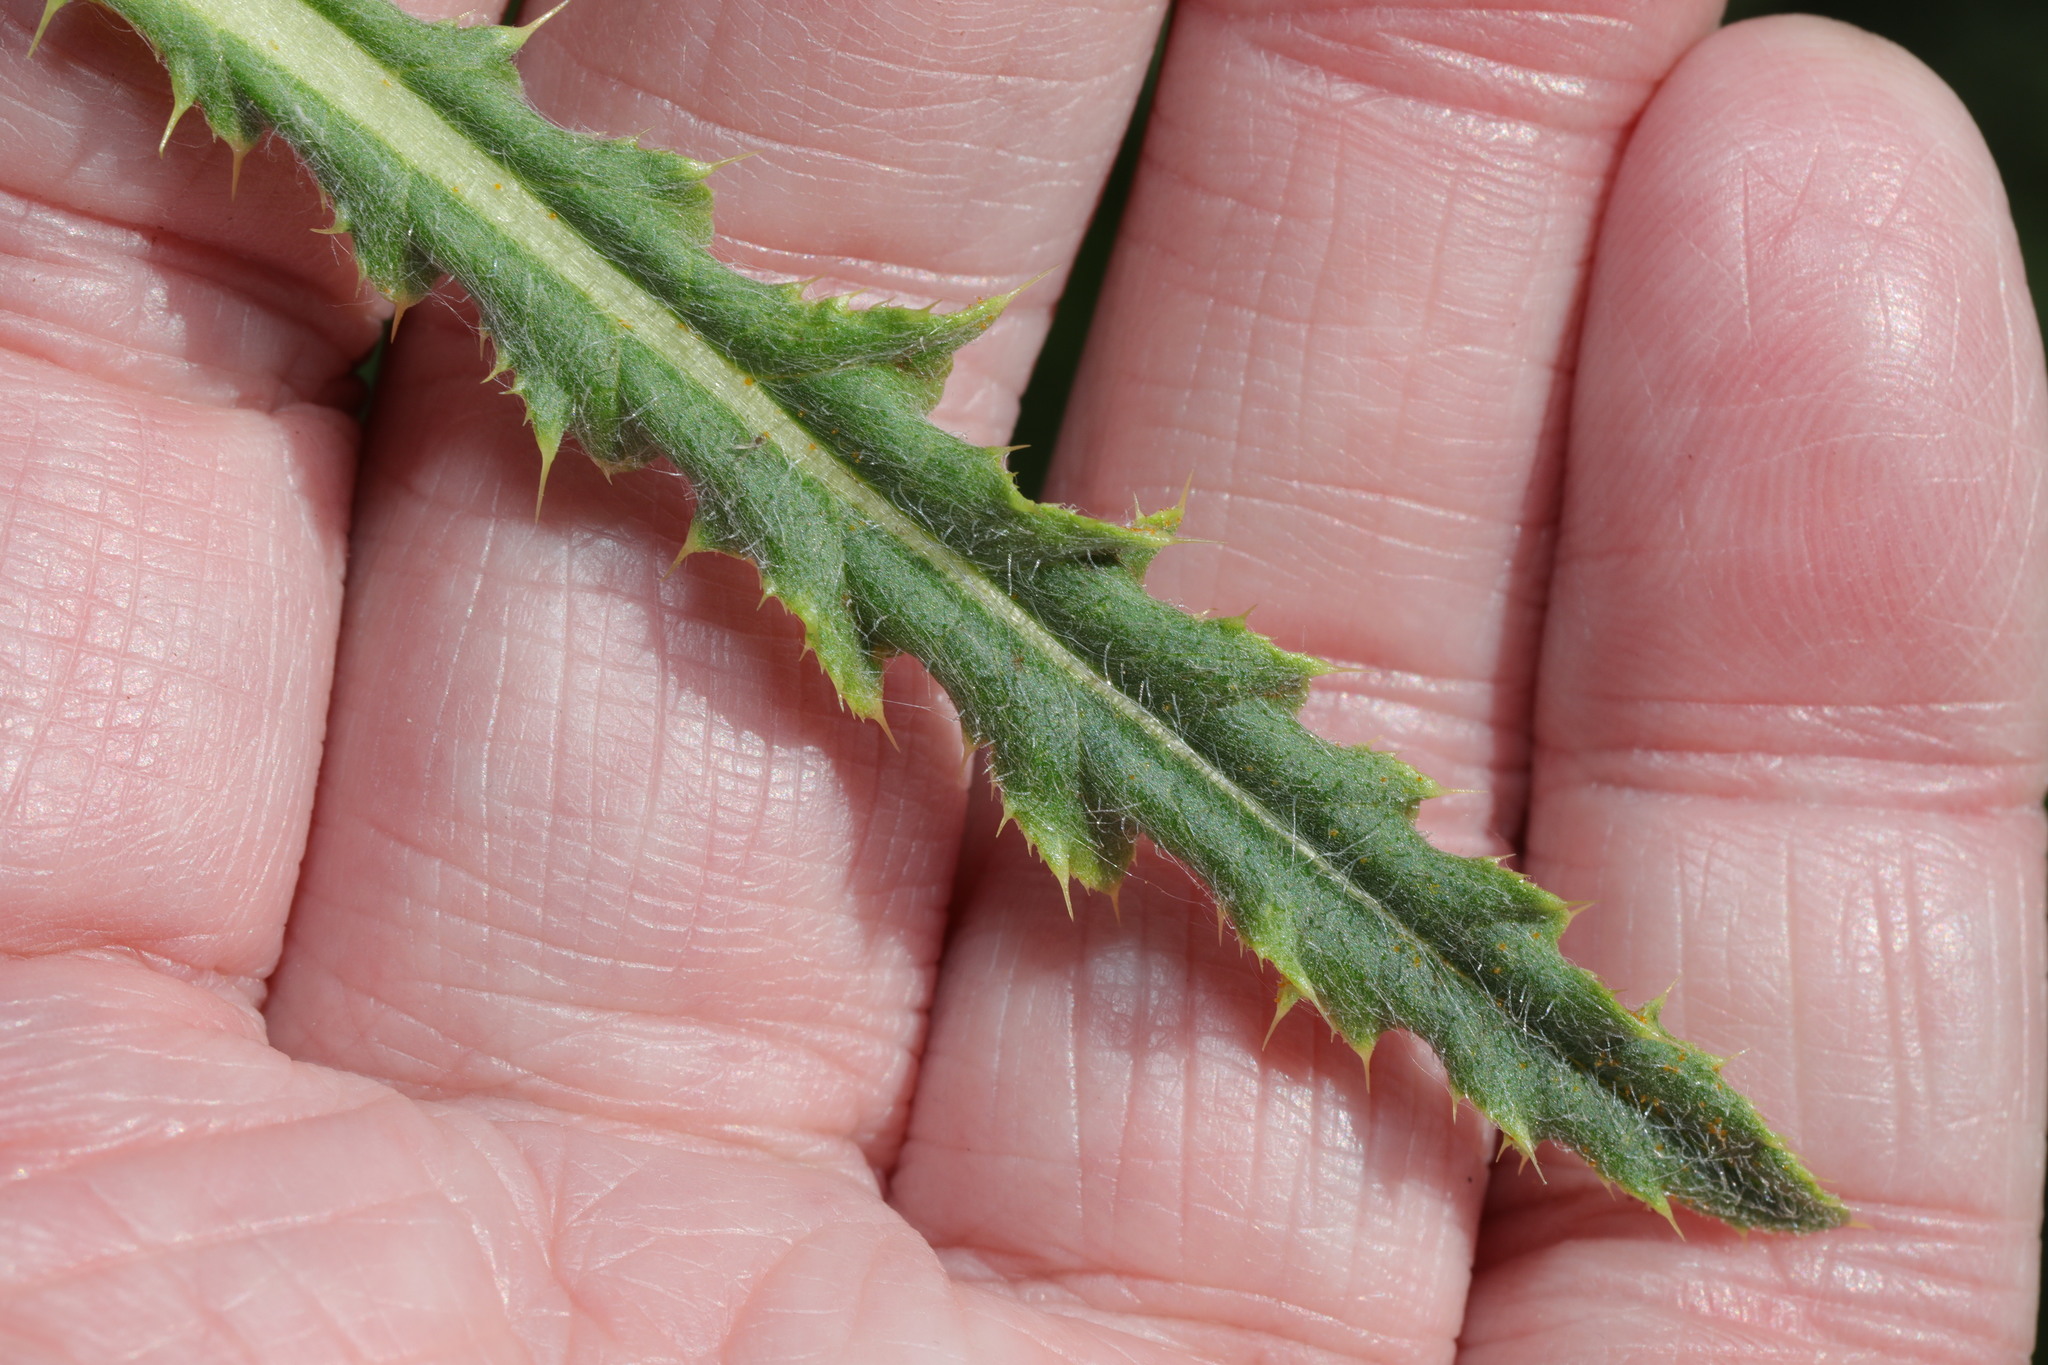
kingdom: Plantae
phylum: Tracheophyta
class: Magnoliopsida
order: Asterales
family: Asteraceae
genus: Cirsium
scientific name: Cirsium arvense
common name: Creeping thistle
